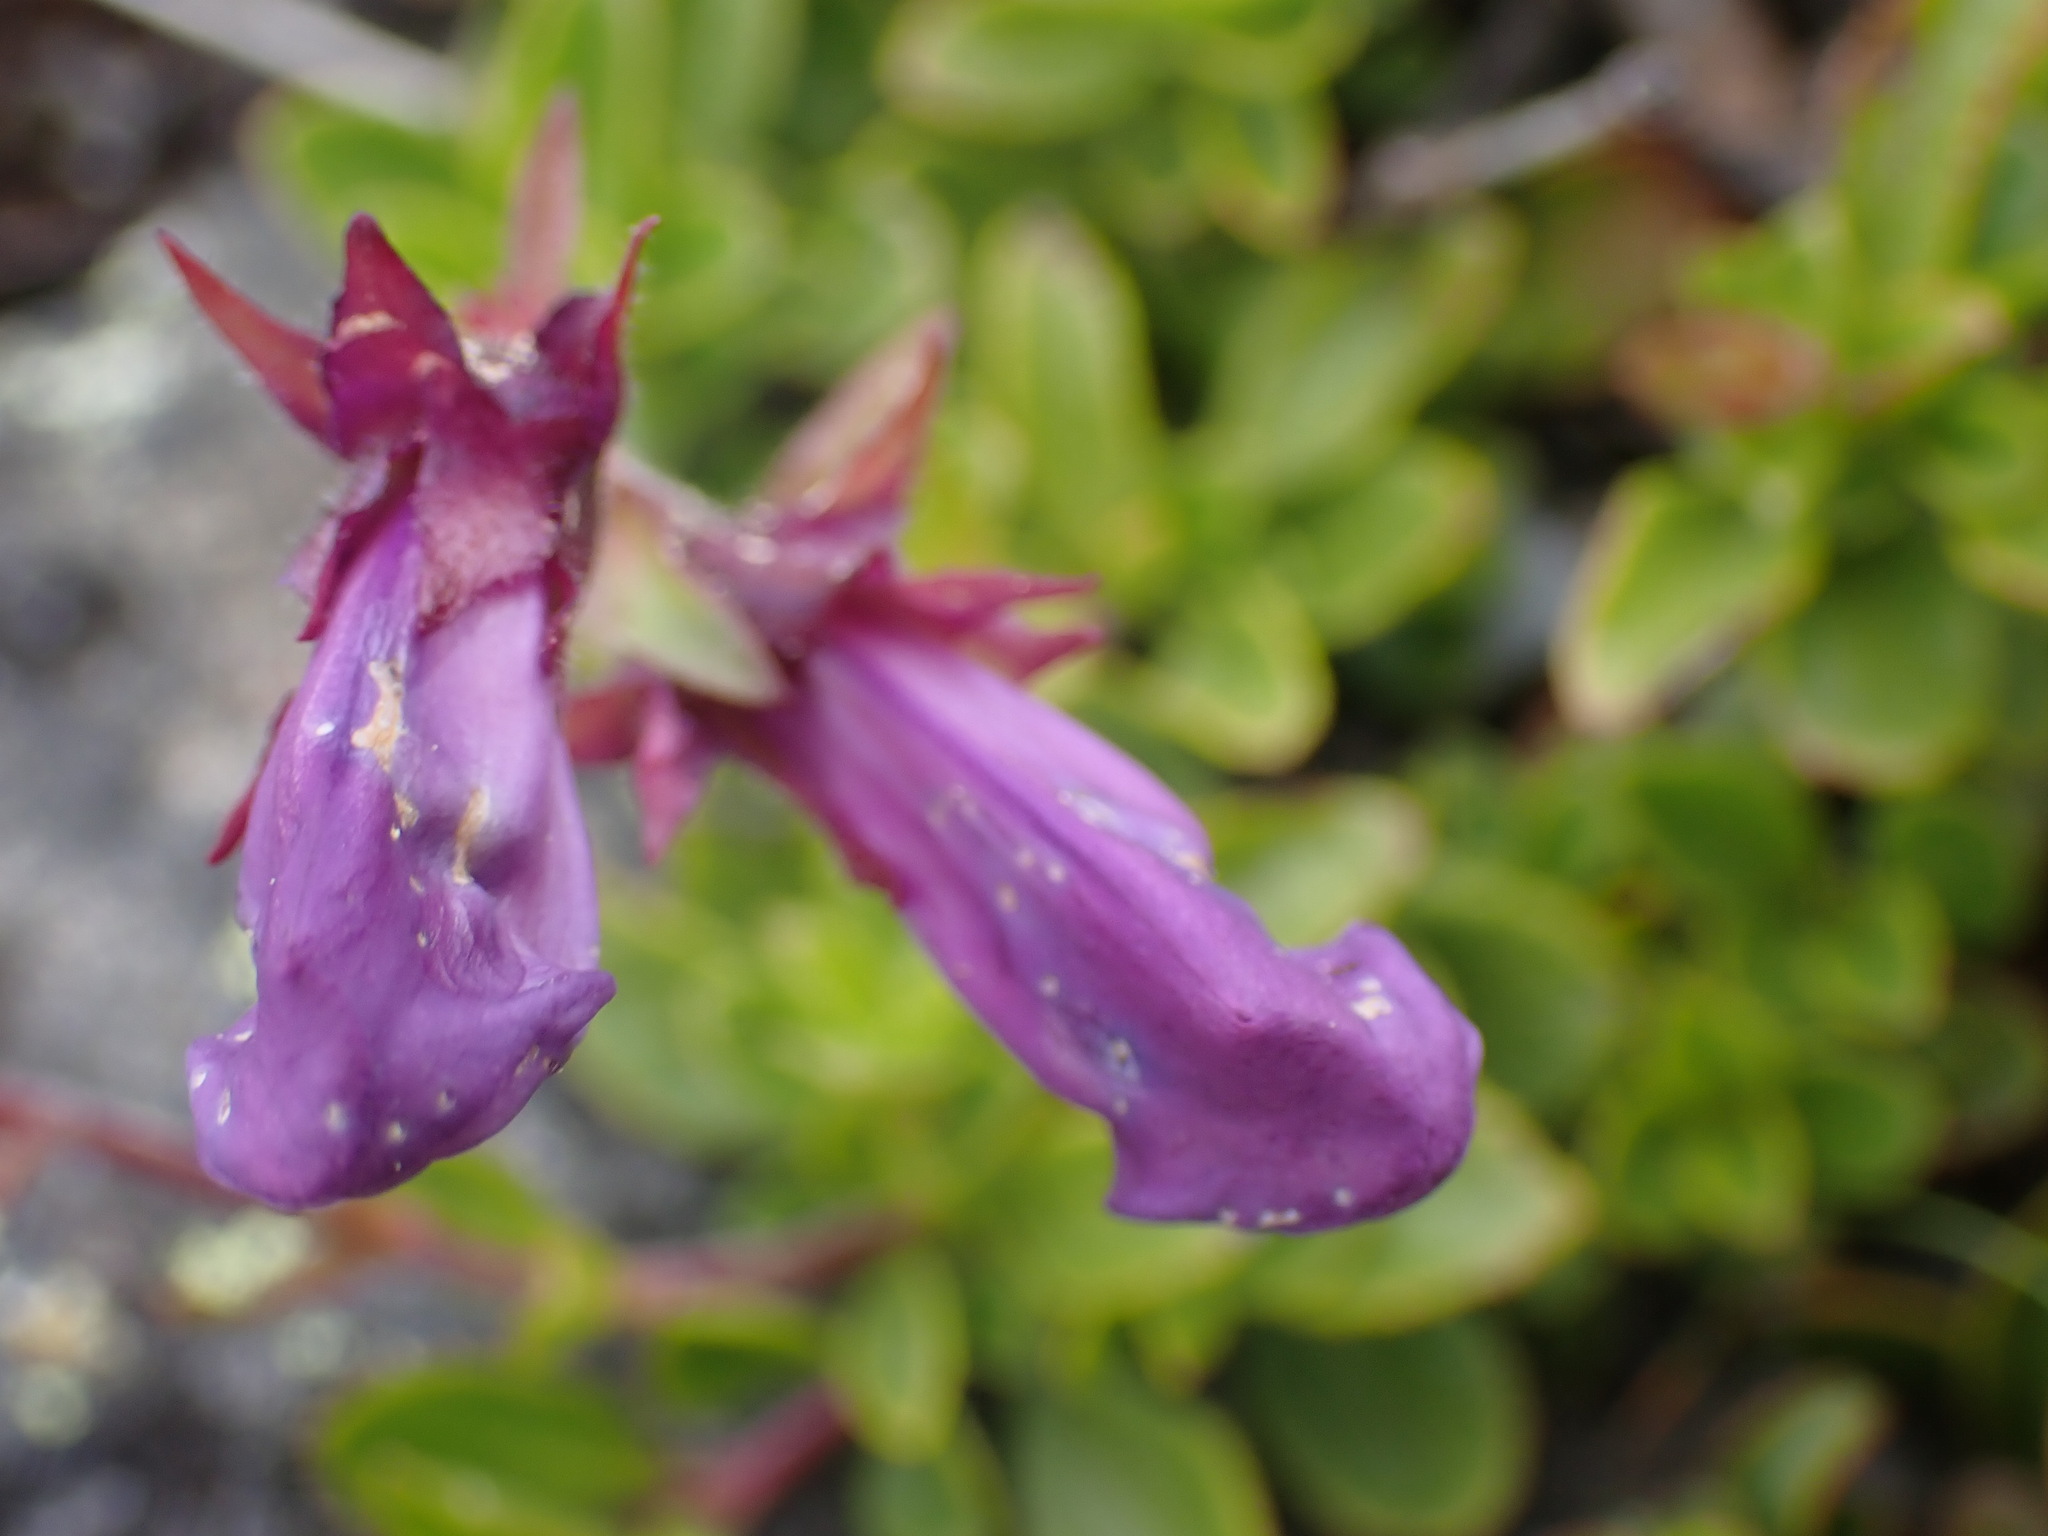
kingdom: Plantae
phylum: Tracheophyta
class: Magnoliopsida
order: Lamiales
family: Plantaginaceae
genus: Penstemon
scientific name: Penstemon davidsonii
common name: Davidson's penstemon
